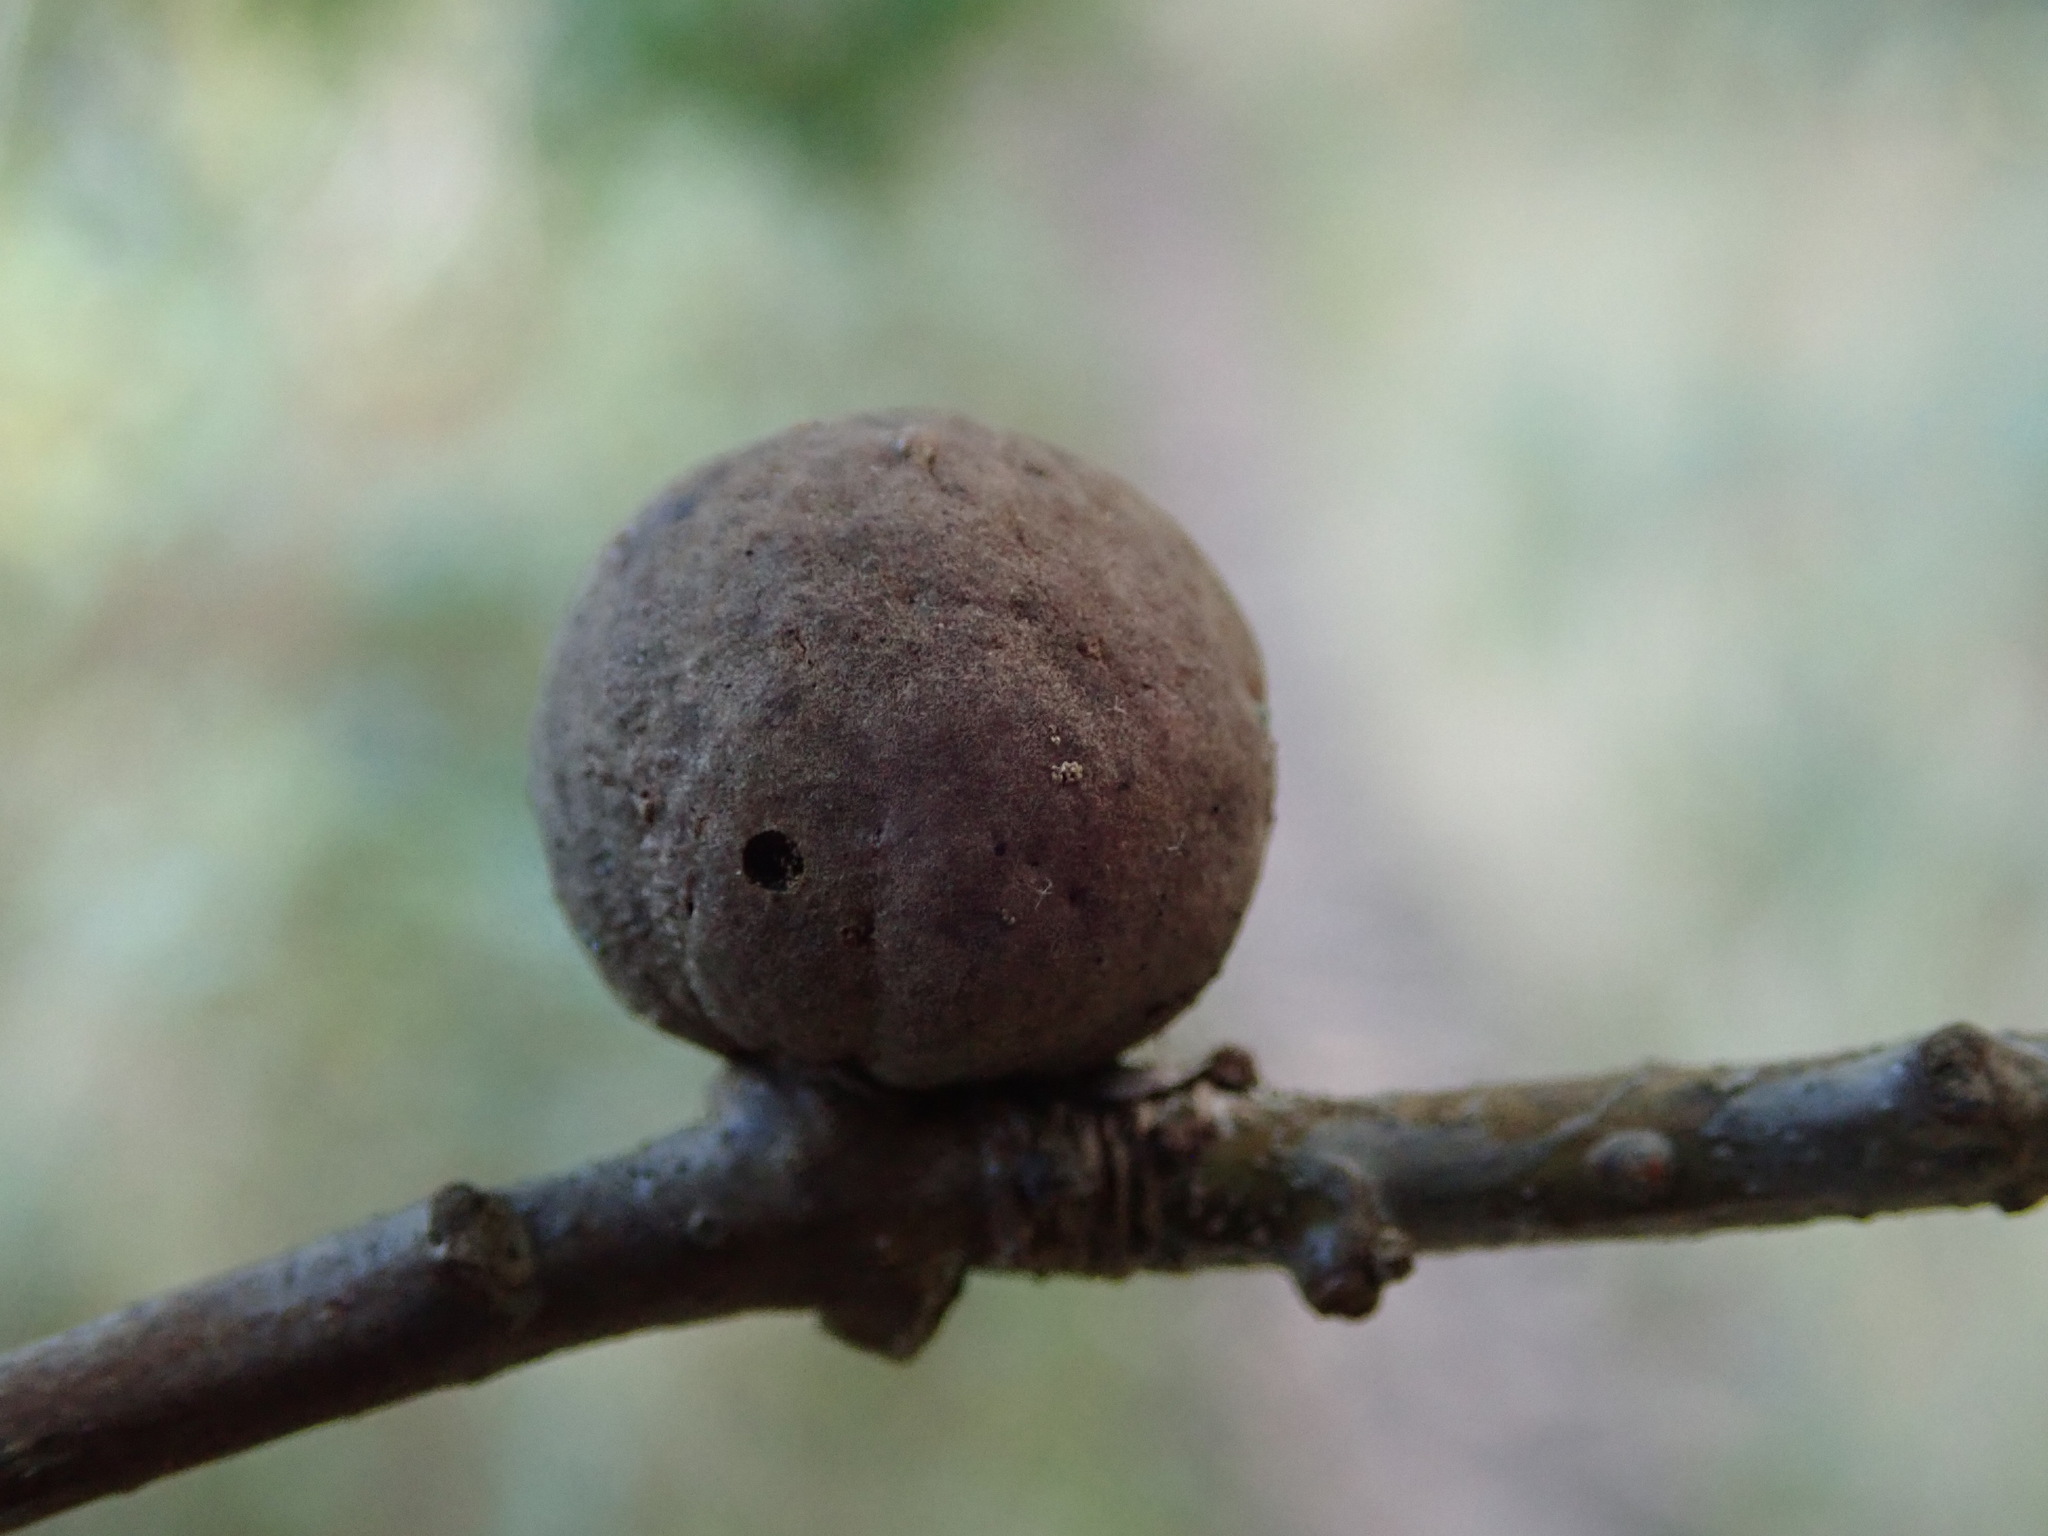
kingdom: Animalia
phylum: Arthropoda
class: Insecta
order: Hymenoptera
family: Cynipidae
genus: Andricus
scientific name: Andricus kollari
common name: Marble gall
